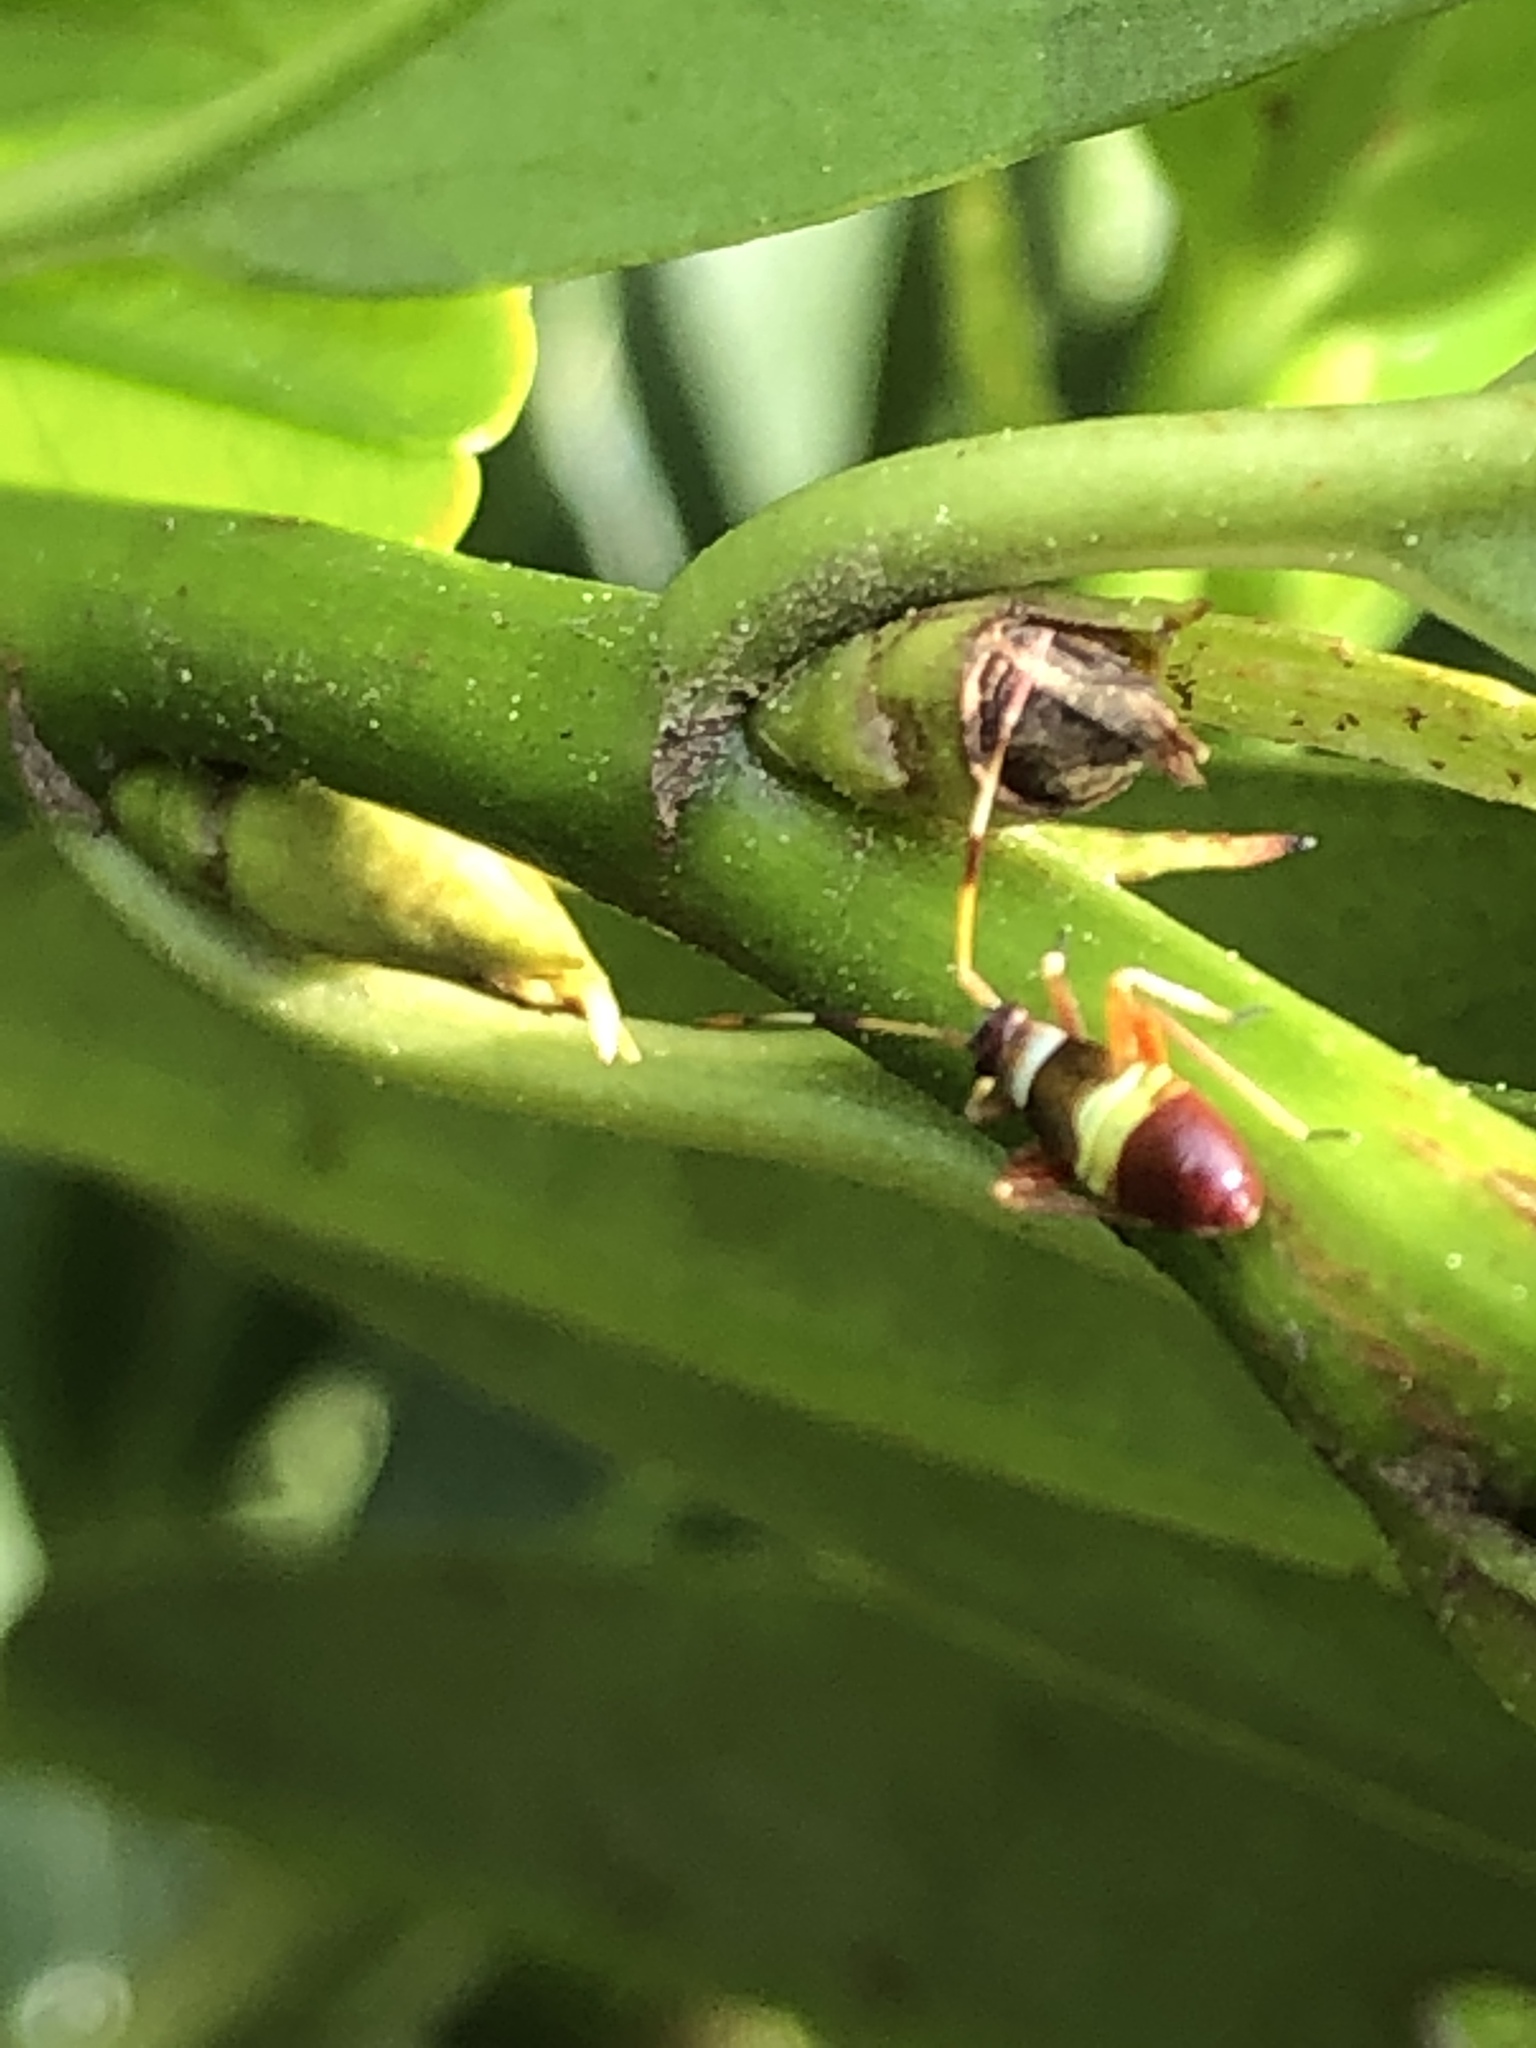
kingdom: Animalia
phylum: Arthropoda
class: Insecta
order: Hemiptera
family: Miridae
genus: Closterotomus
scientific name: Closterotomus biclavatus
